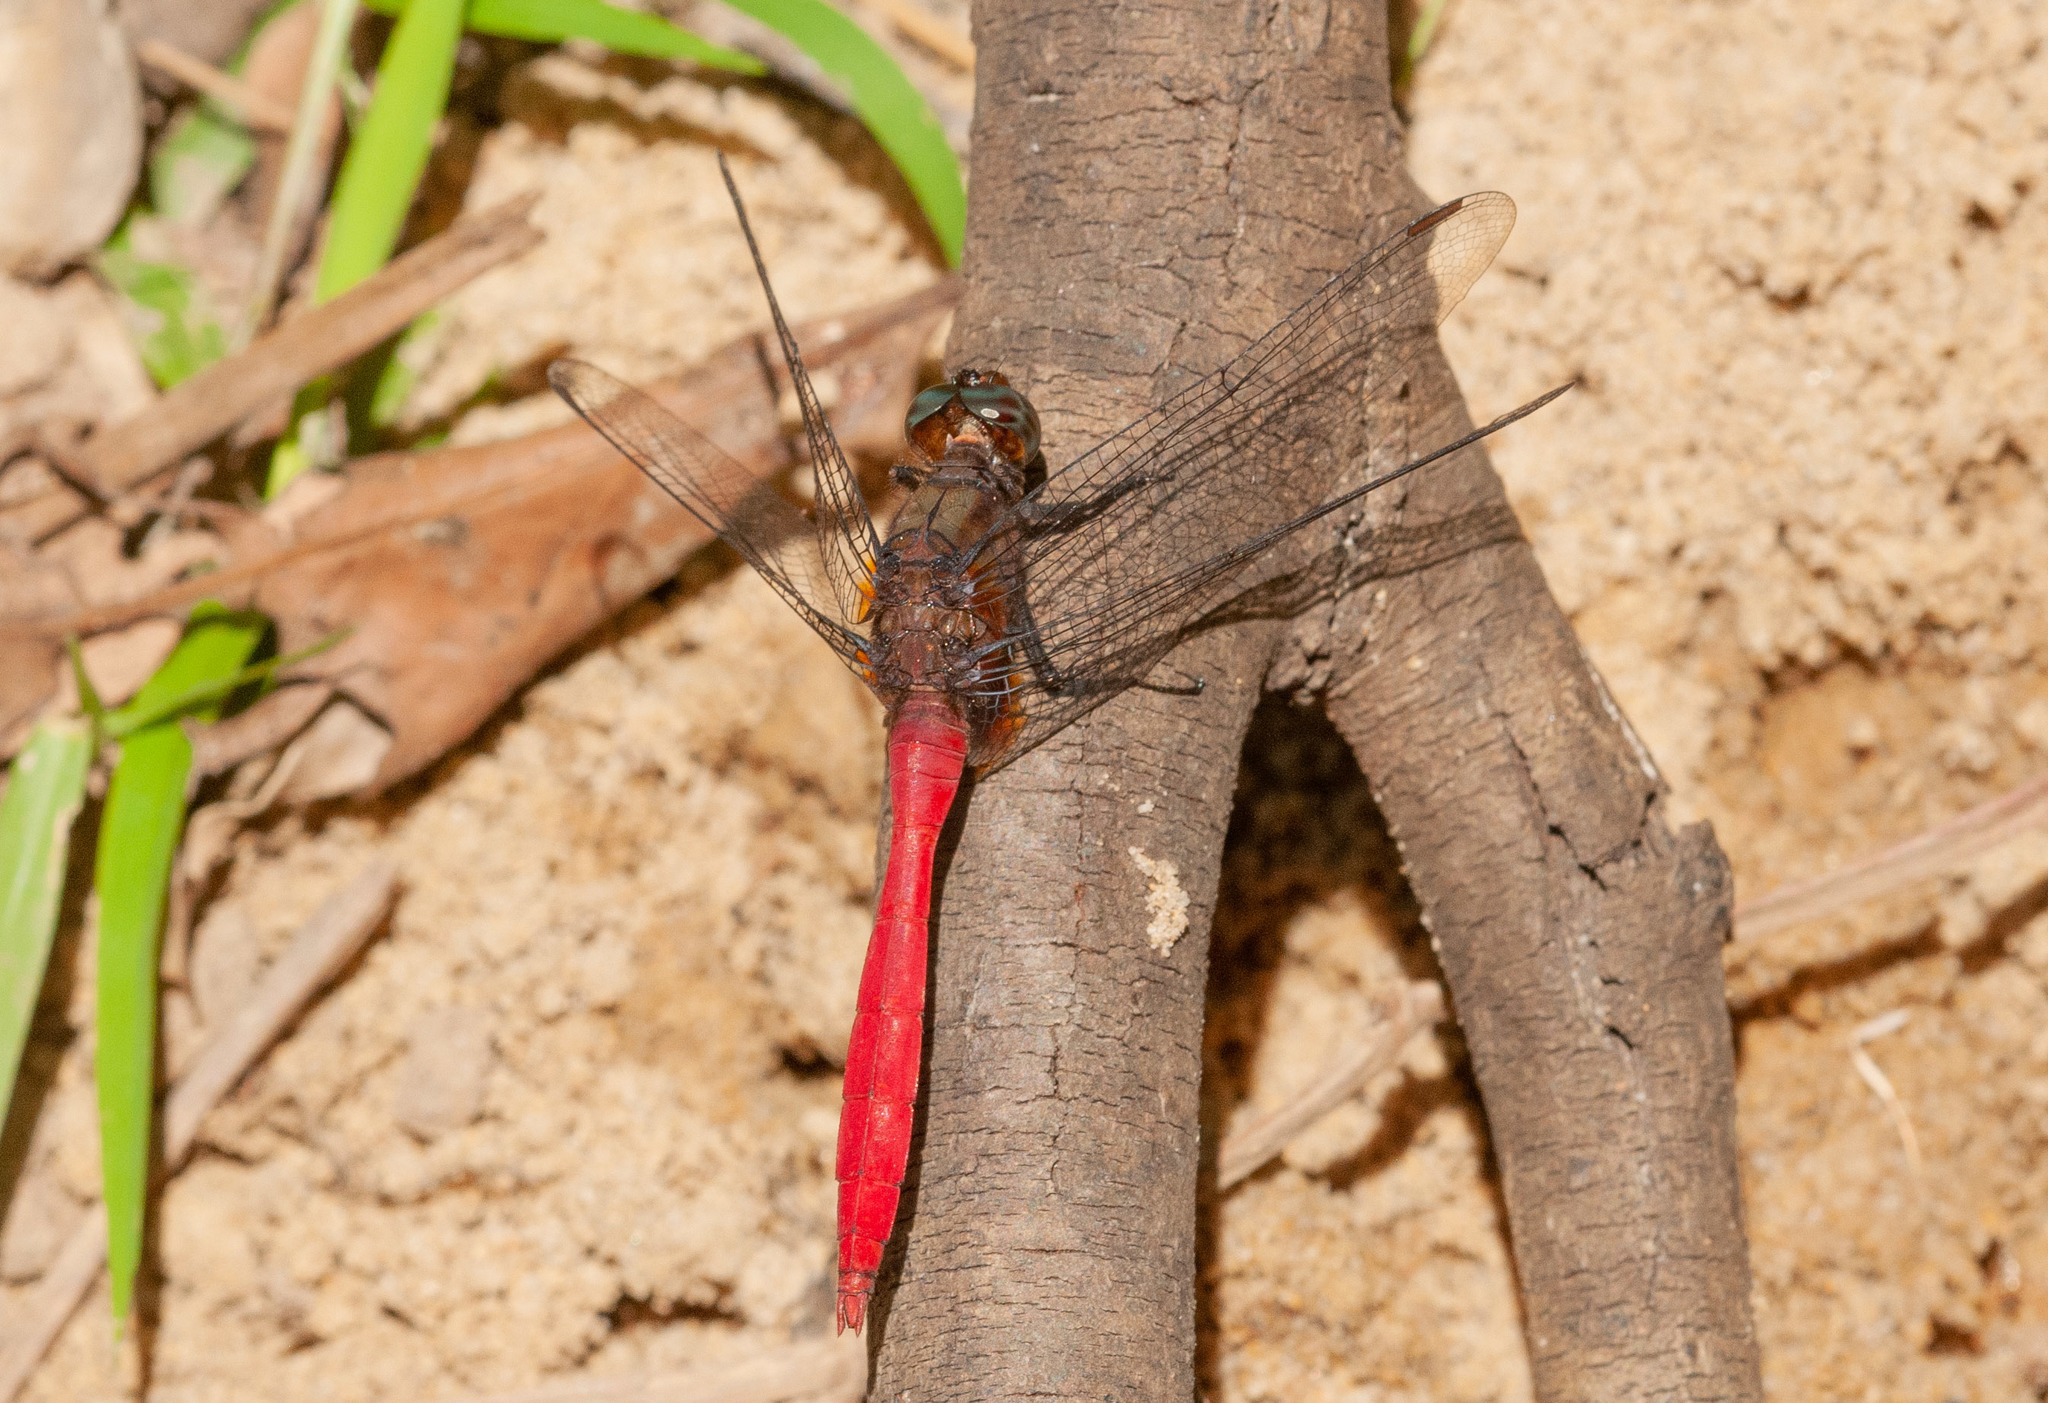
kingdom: Animalia
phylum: Arthropoda
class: Insecta
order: Odonata
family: Libellulidae
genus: Orthetrum
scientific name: Orthetrum villosovittatum
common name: Firery skimmer
